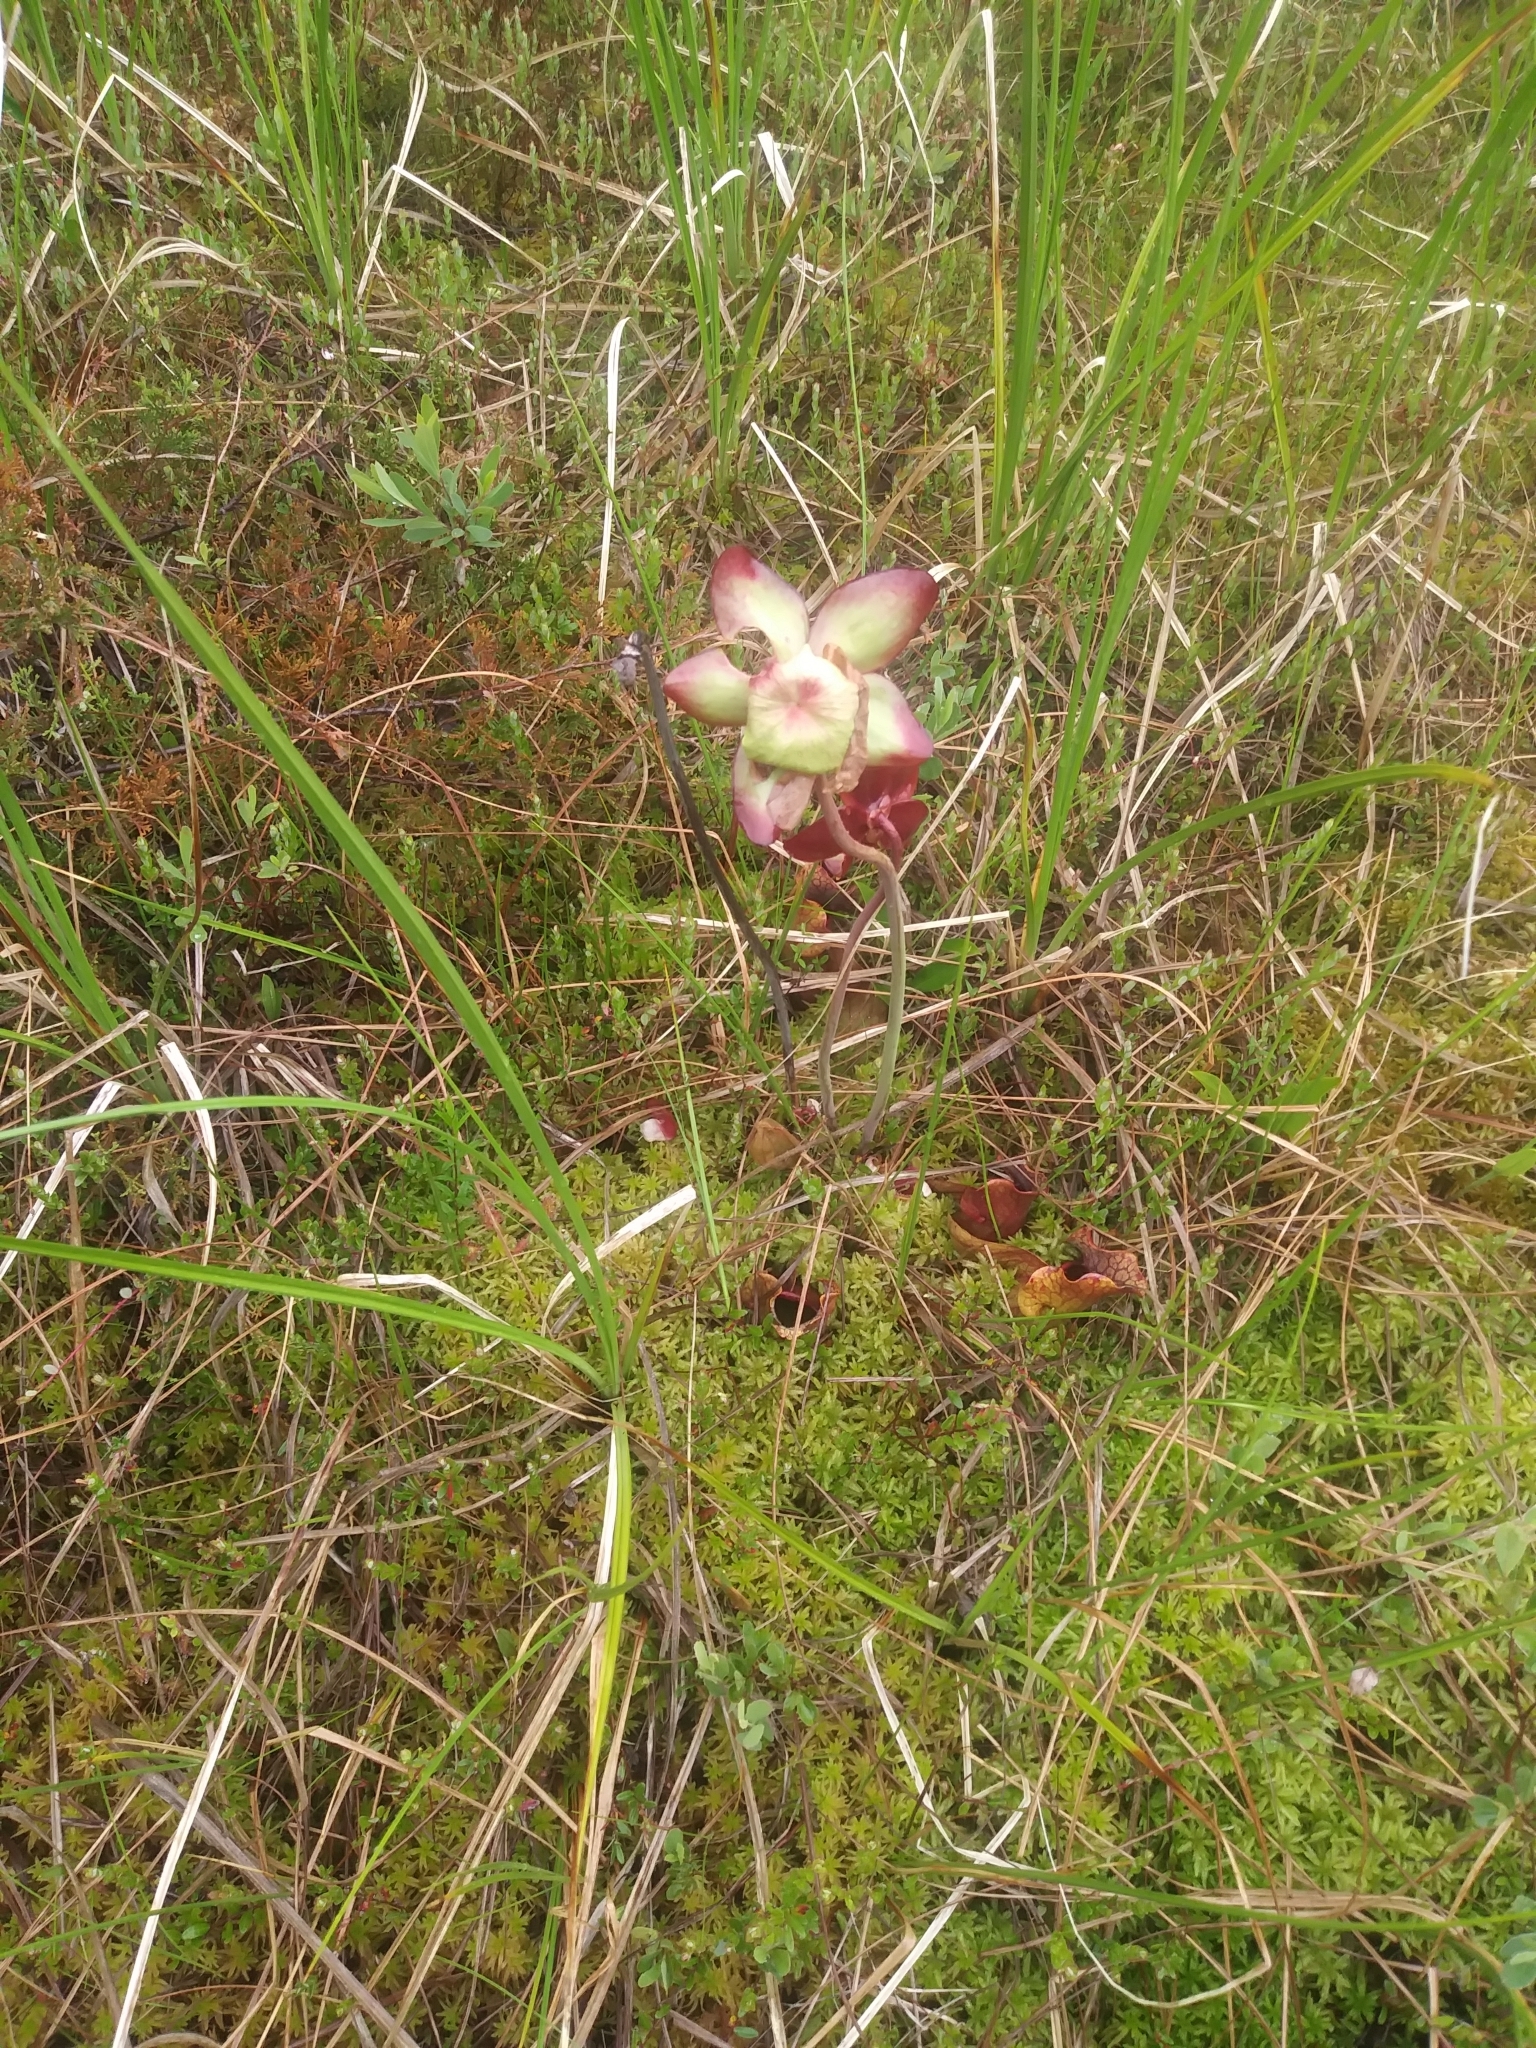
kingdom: Plantae
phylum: Tracheophyta
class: Magnoliopsida
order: Ericales
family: Sarraceniaceae
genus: Sarracenia
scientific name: Sarracenia purpurea
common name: Pitcherplant
